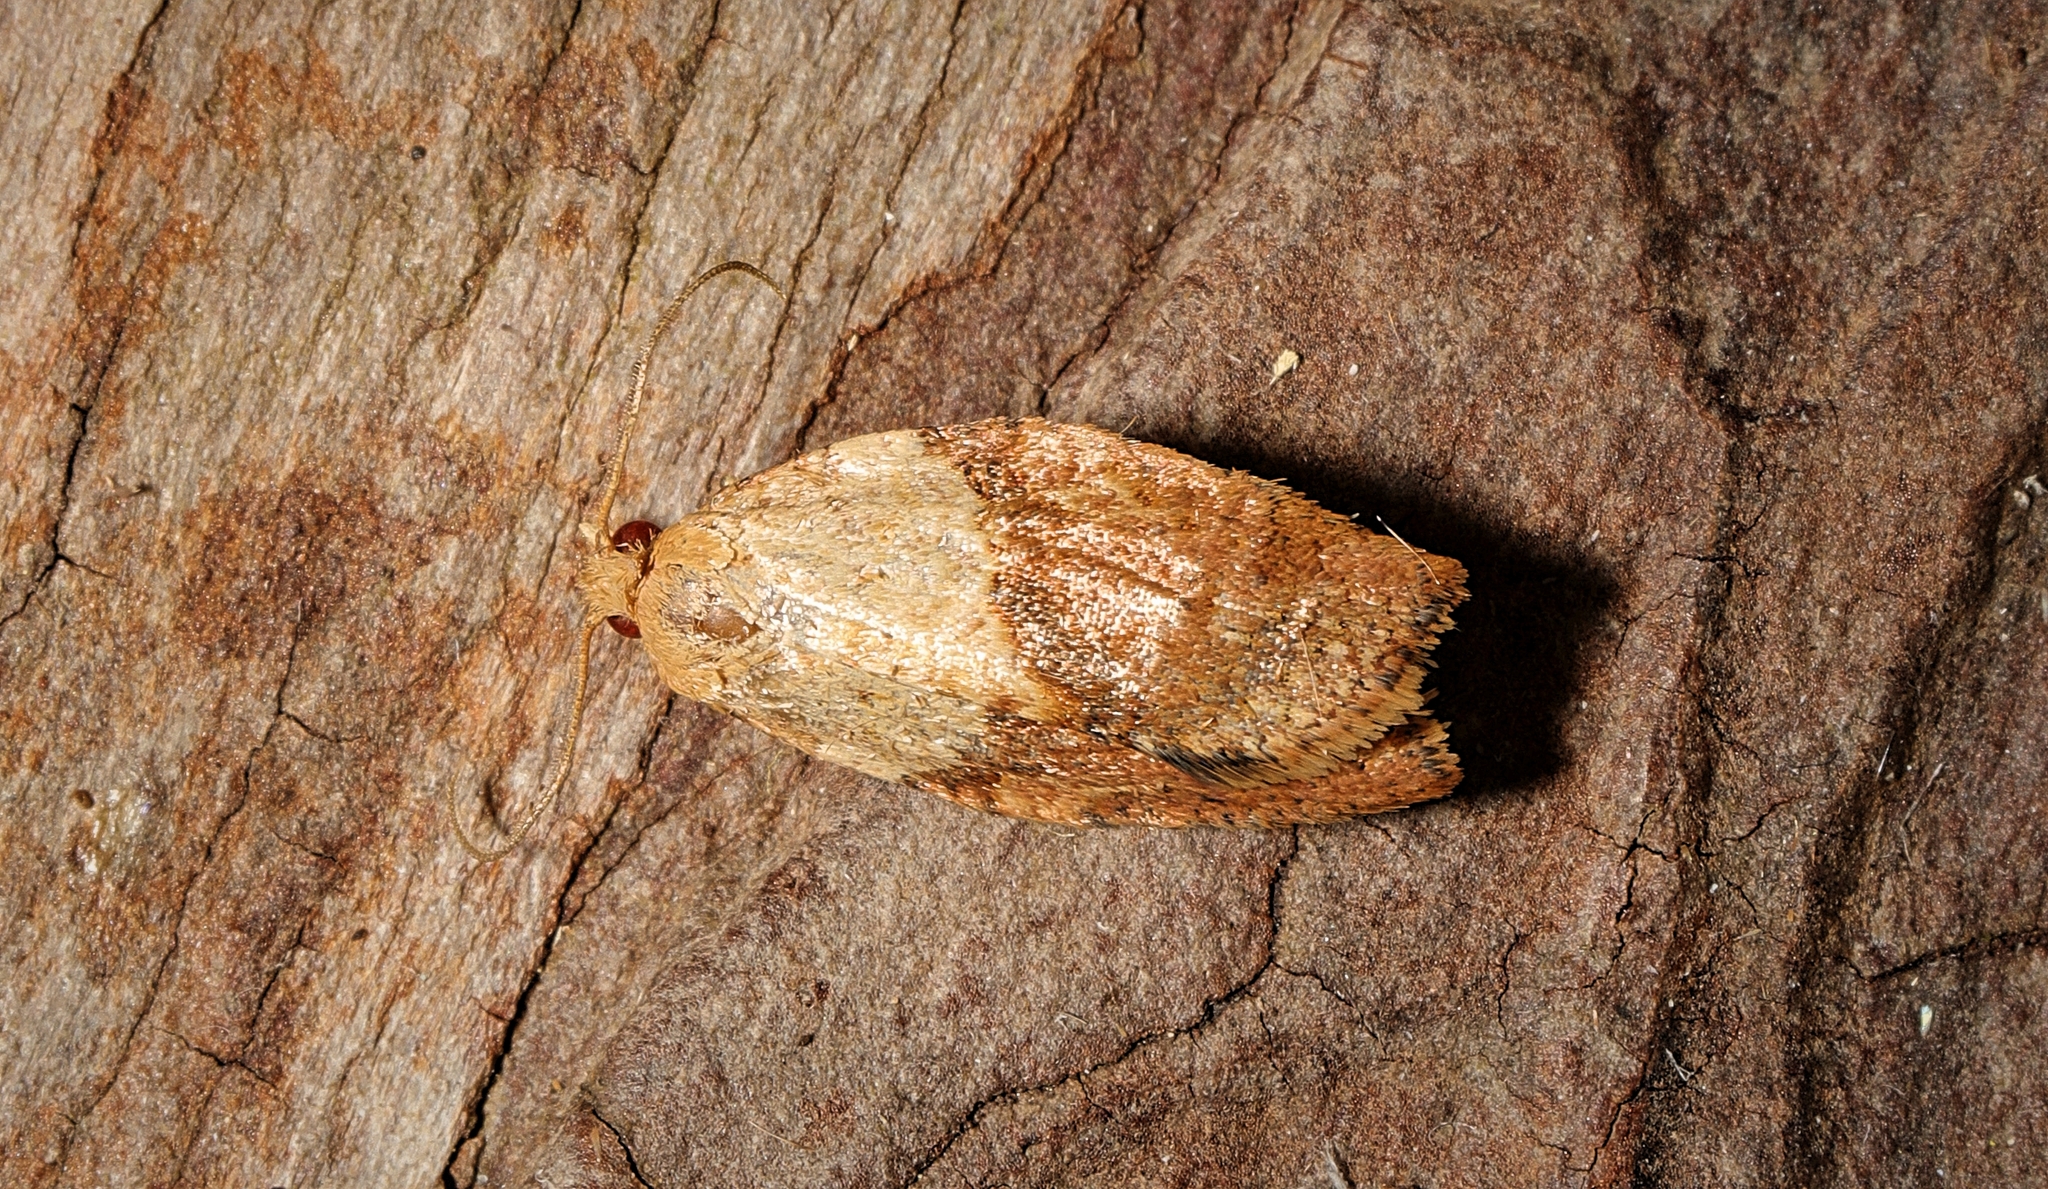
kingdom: Animalia
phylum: Arthropoda
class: Insecta
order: Lepidoptera
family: Tortricidae
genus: Epiphyas
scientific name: Epiphyas postvittana
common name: Light brown apple moth
